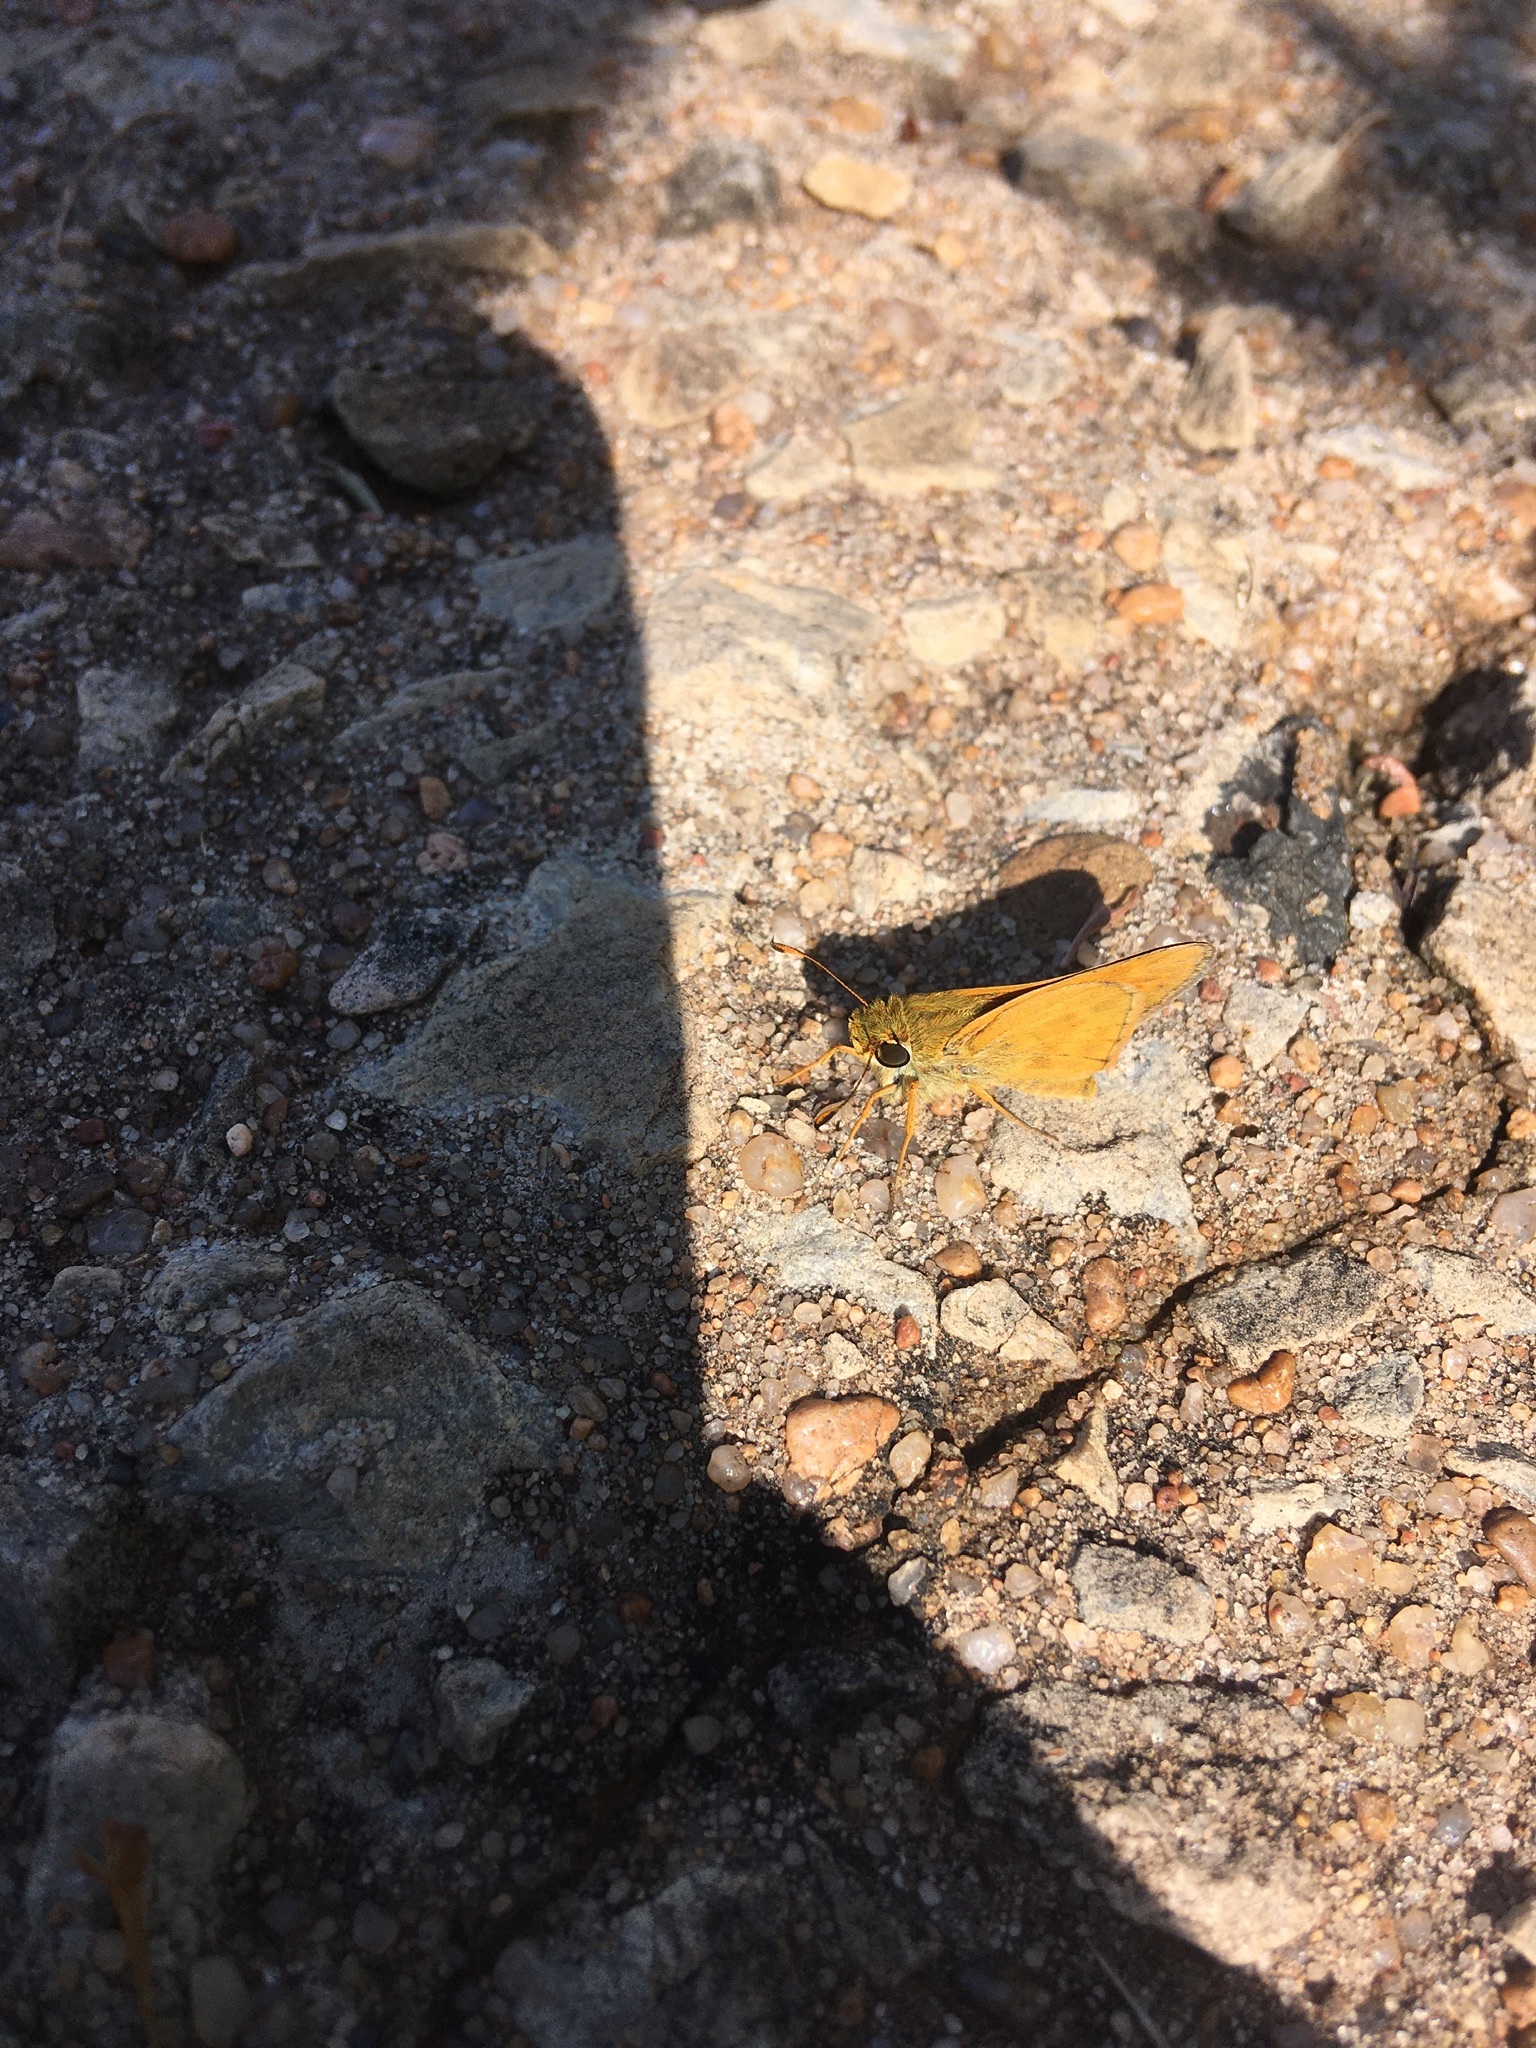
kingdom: Animalia
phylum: Arthropoda
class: Insecta
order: Lepidoptera
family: Hesperiidae
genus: Atalopedes
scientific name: Atalopedes
